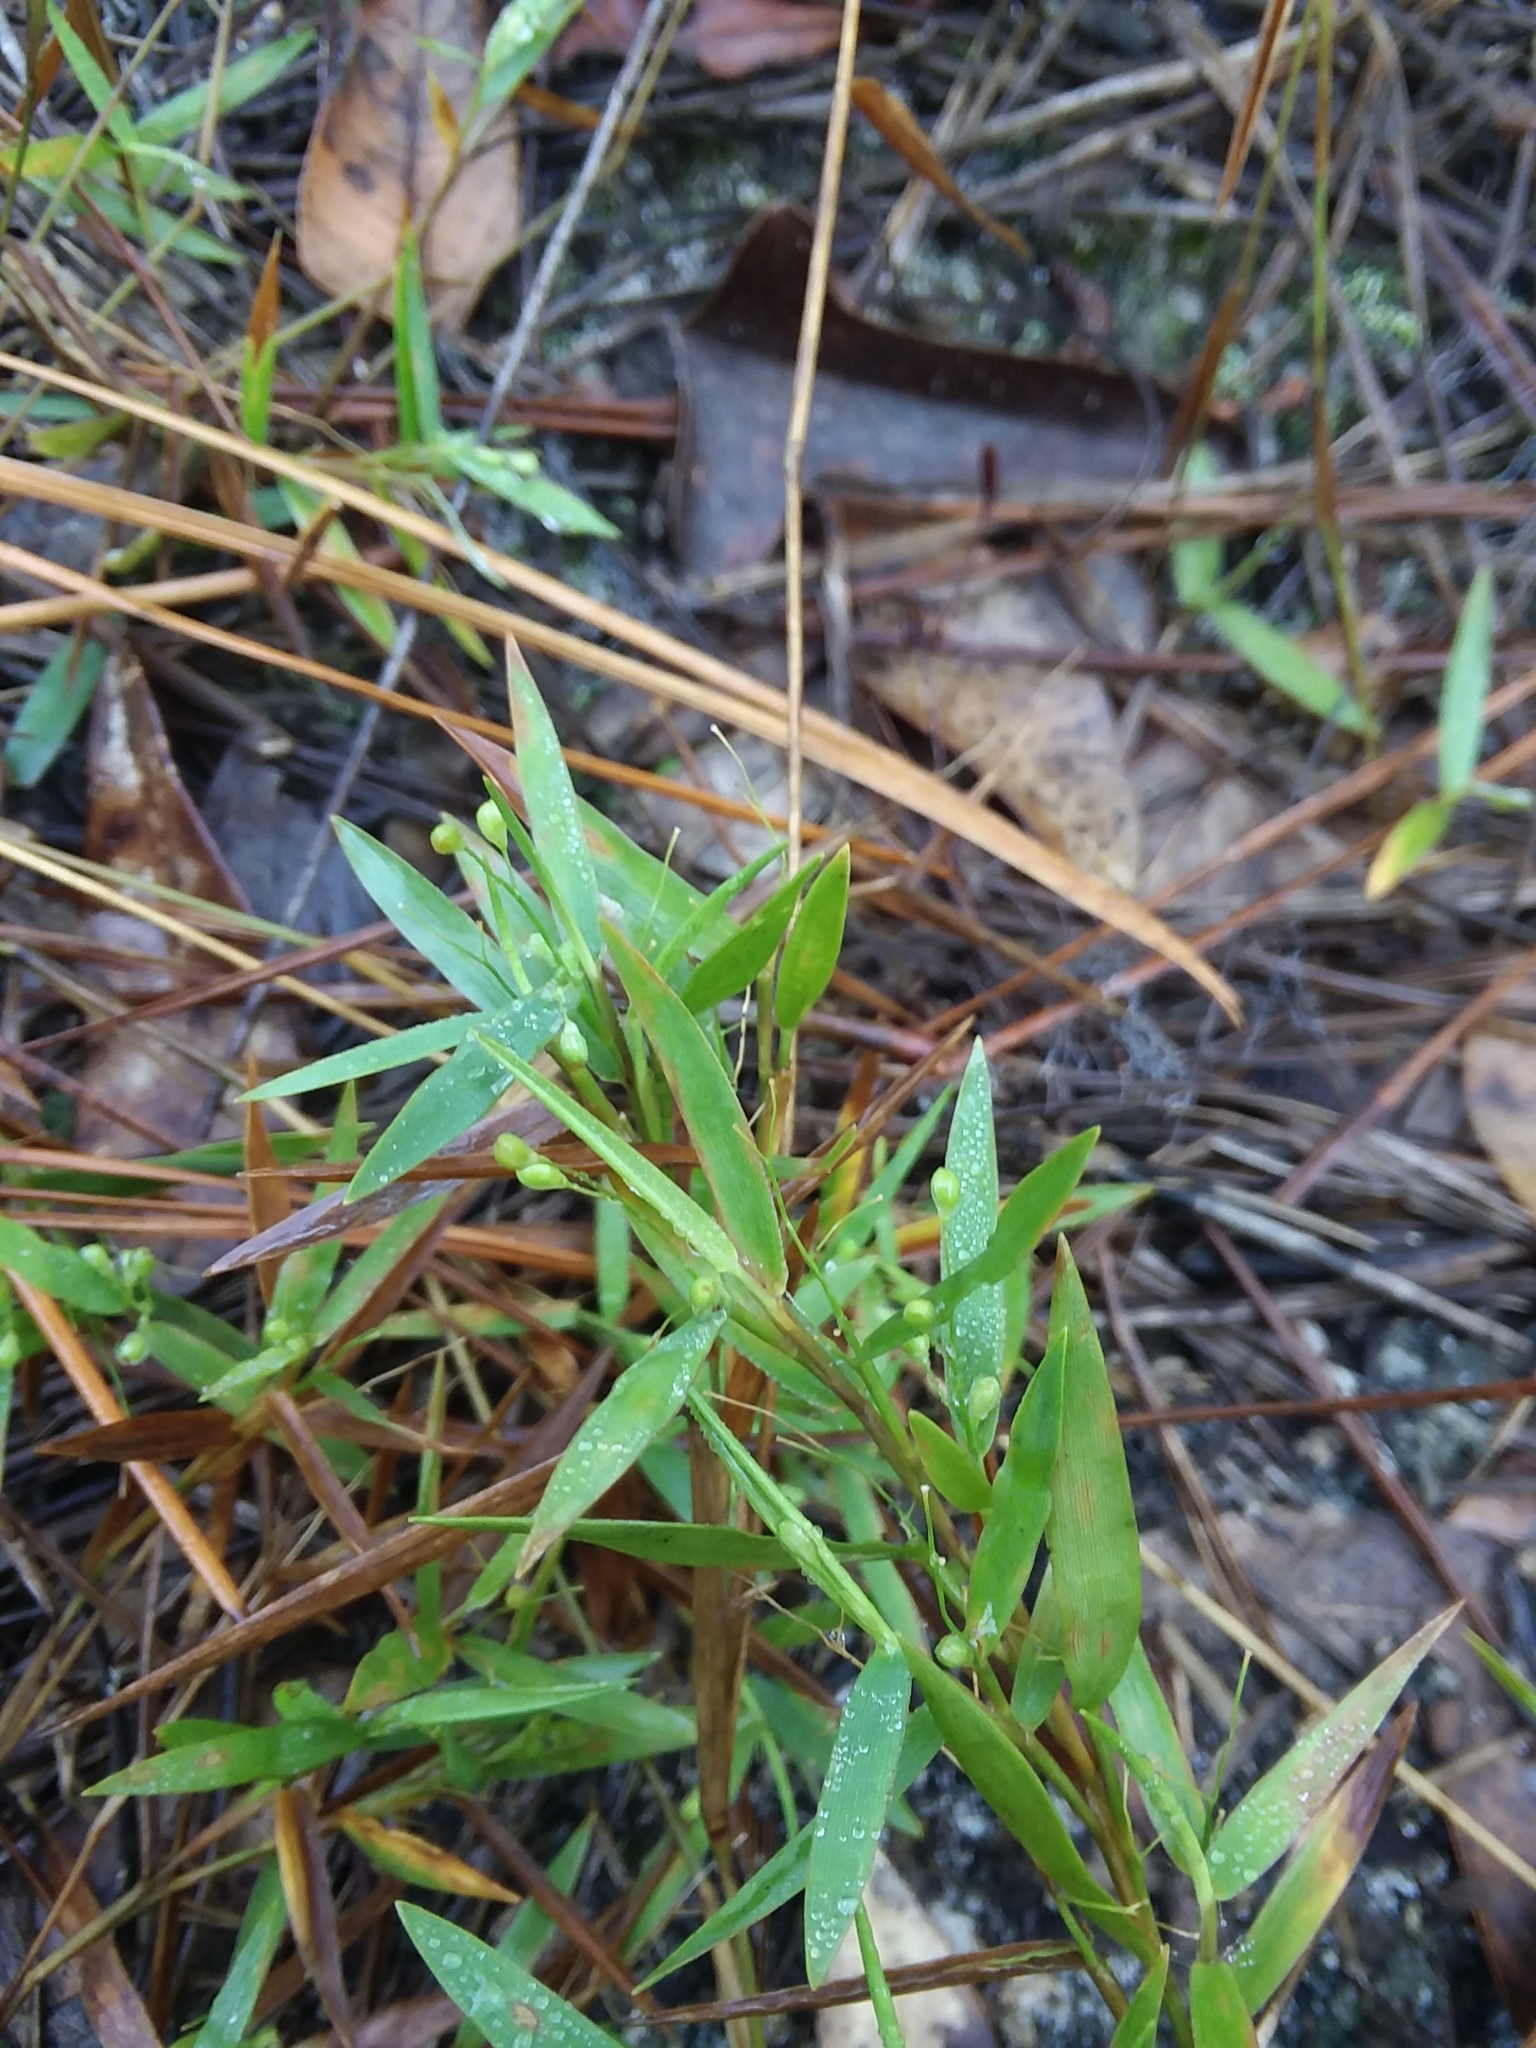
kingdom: Plantae
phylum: Tracheophyta
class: Liliopsida
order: Poales
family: Poaceae
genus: Dichanthelium
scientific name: Dichanthelium portoricense
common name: American panicgrass
